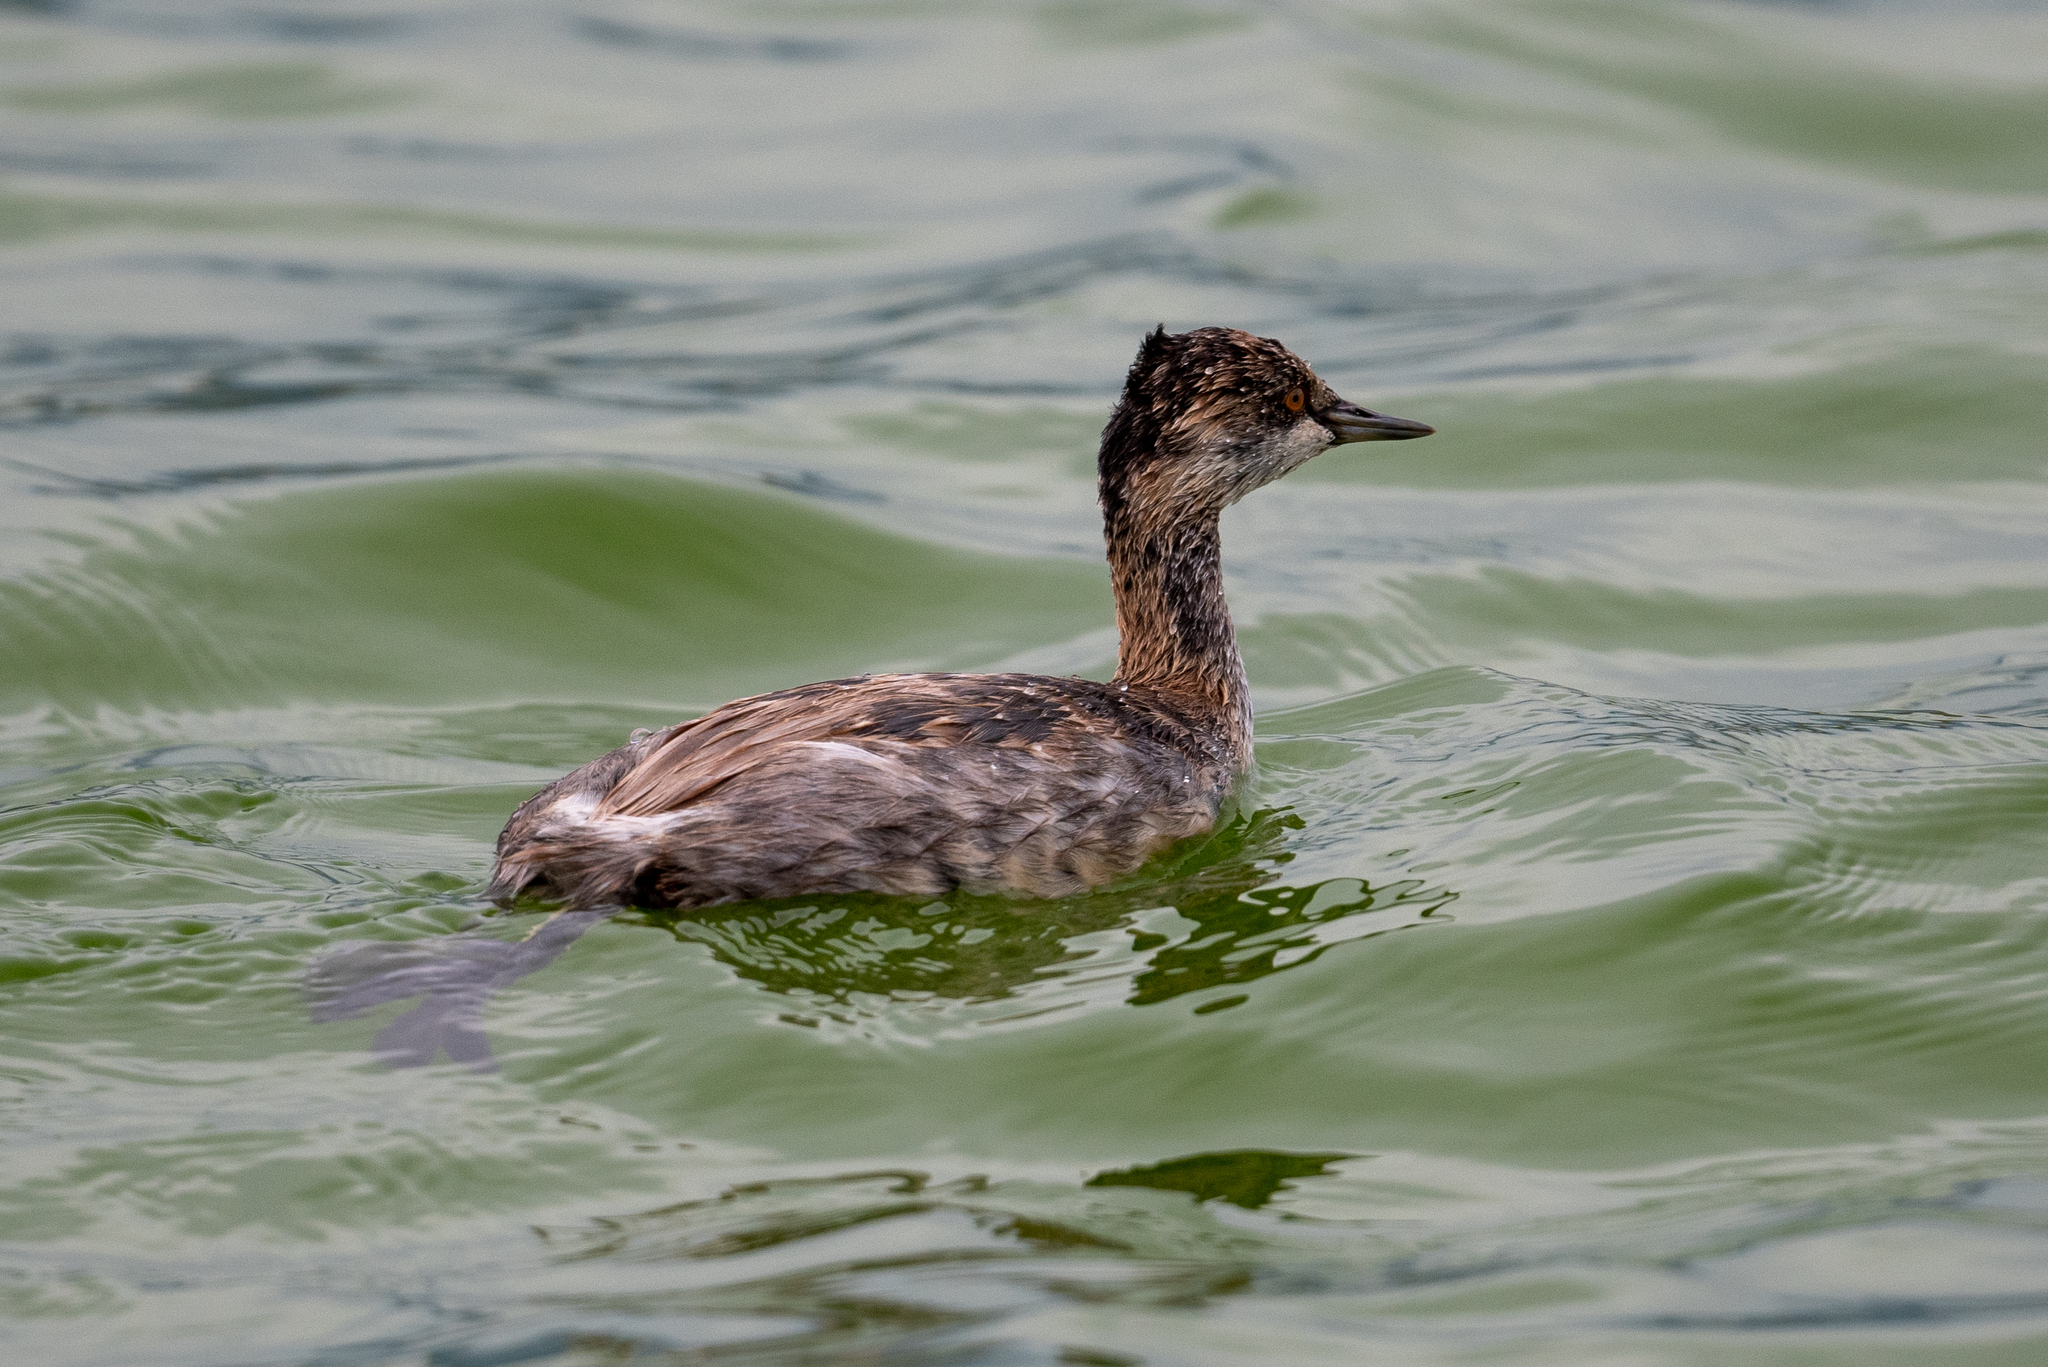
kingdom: Animalia
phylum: Chordata
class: Aves
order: Podicipediformes
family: Podicipedidae
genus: Podiceps
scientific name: Podiceps nigricollis
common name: Black-necked grebe
